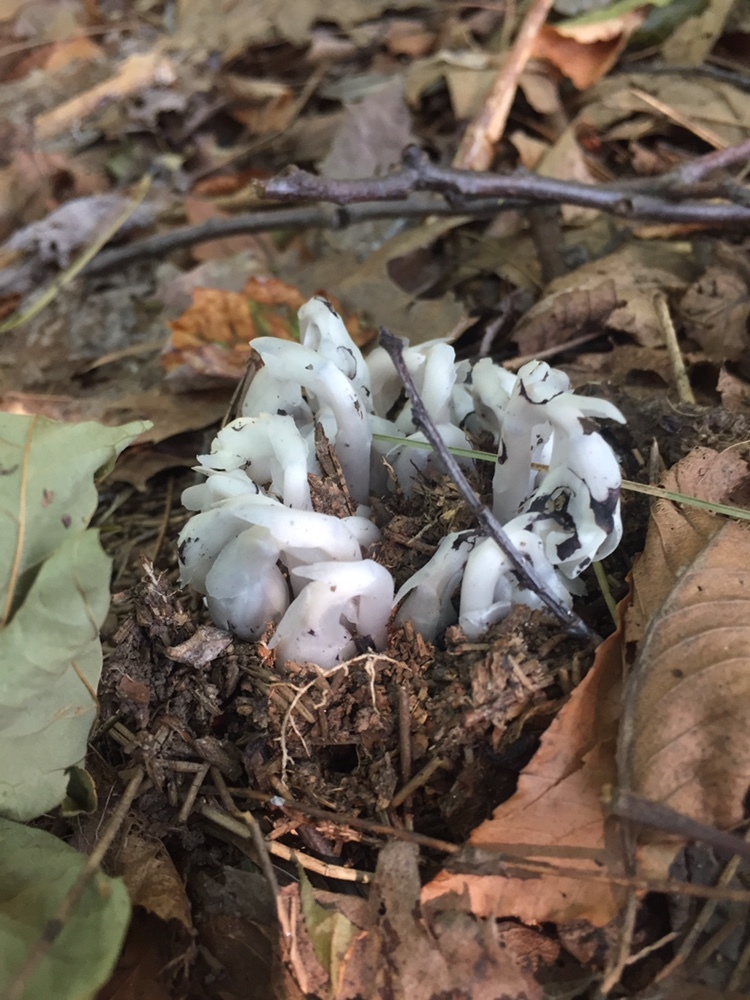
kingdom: Plantae
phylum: Tracheophyta
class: Magnoliopsida
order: Ericales
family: Ericaceae
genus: Monotropa
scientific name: Monotropa uniflora
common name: Convulsion root
